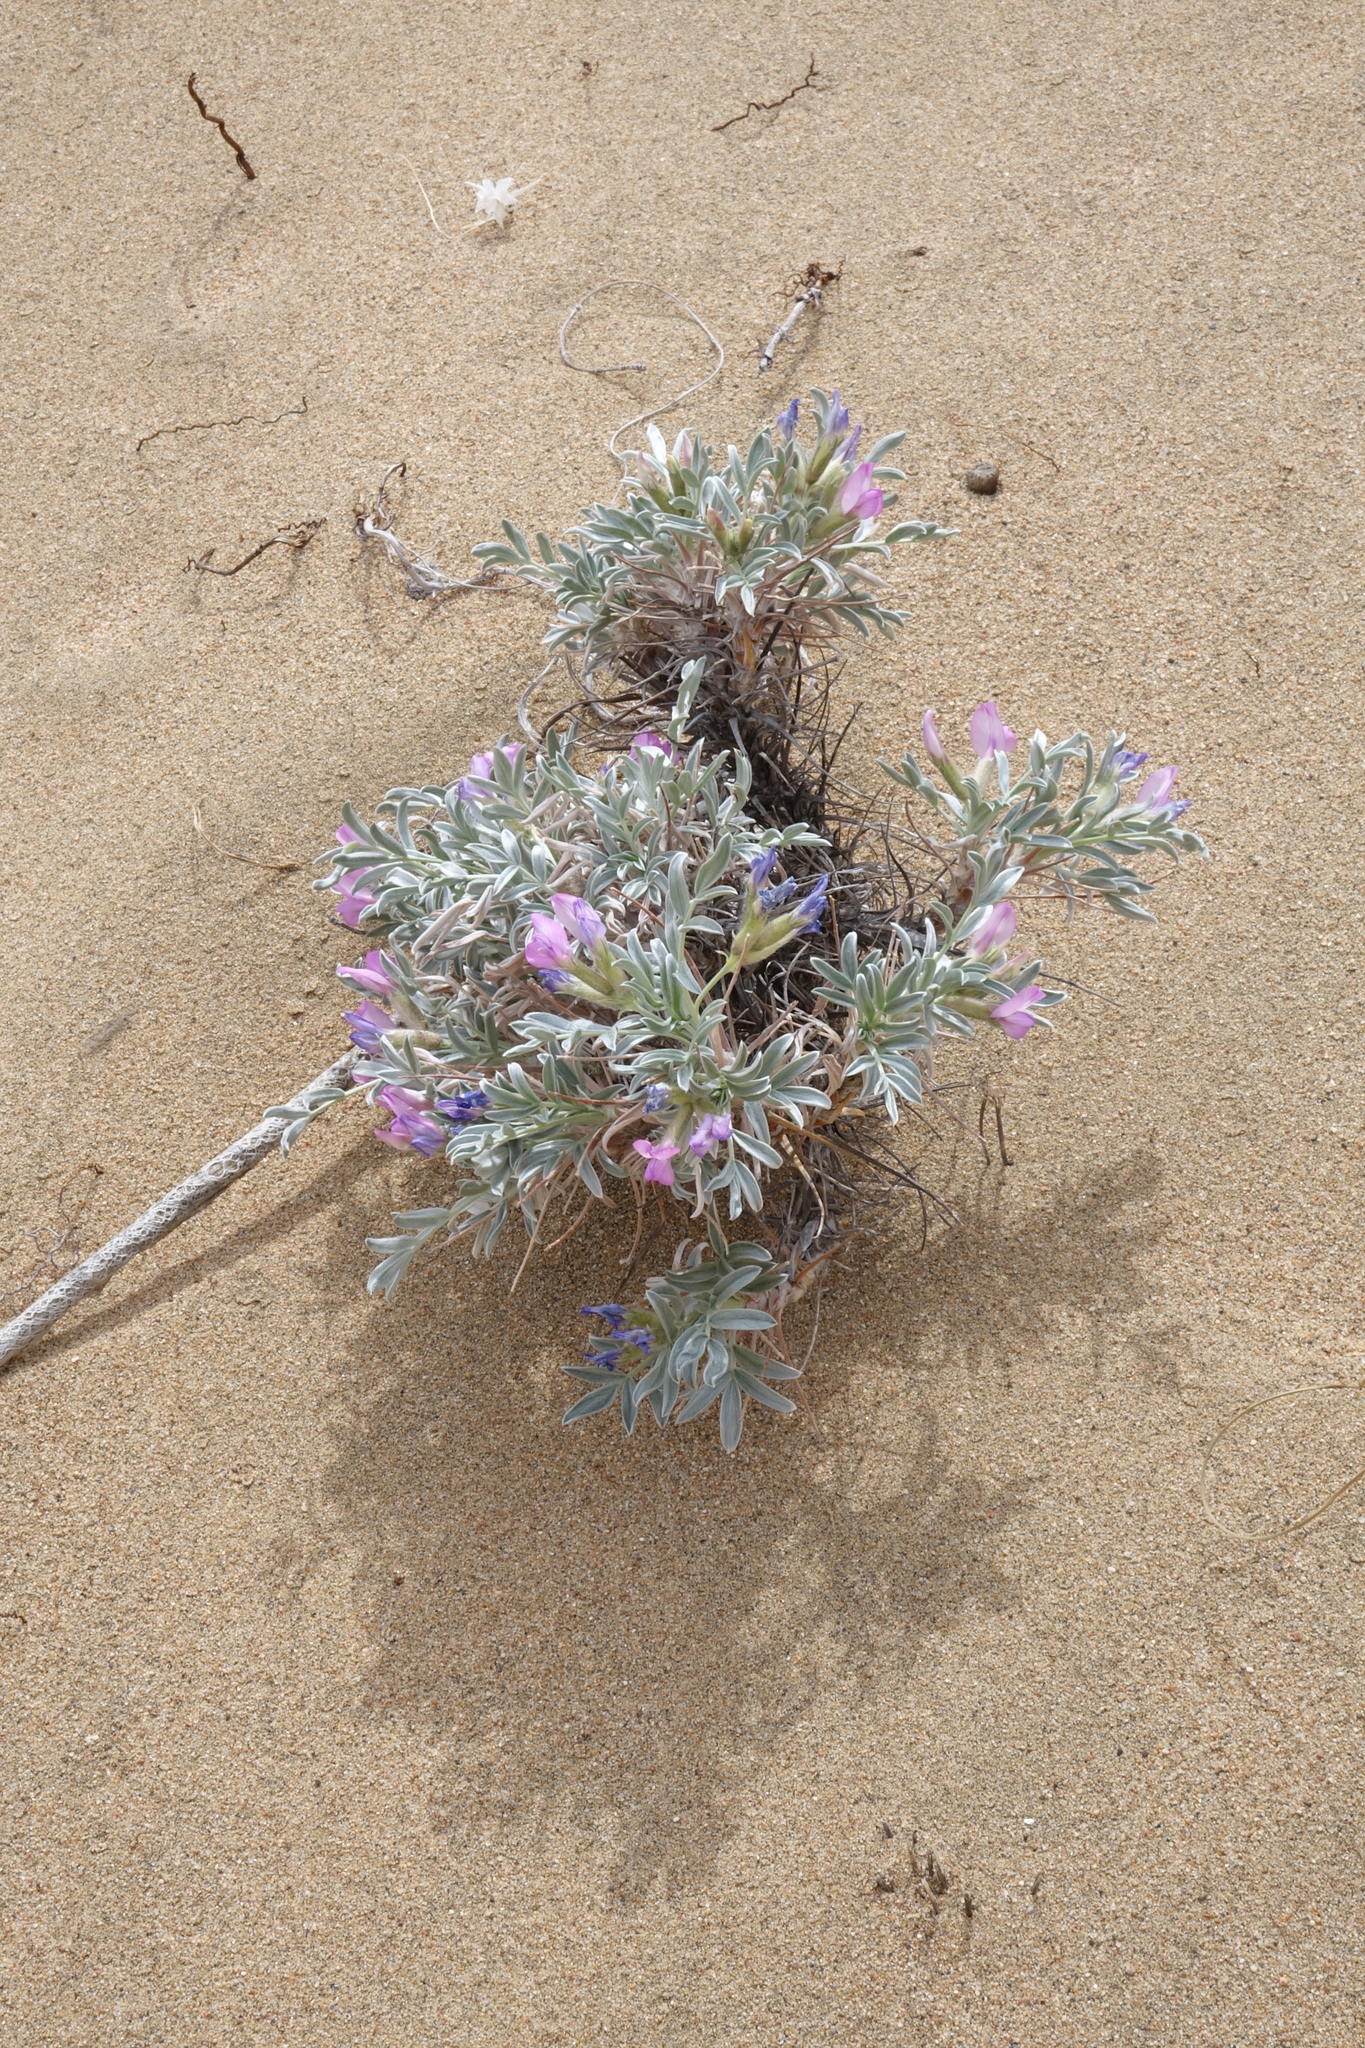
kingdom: Plantae
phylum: Tracheophyta
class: Magnoliopsida
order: Fabales
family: Fabaceae
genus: Oxytropis
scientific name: Oxytropis tragacanthoides
